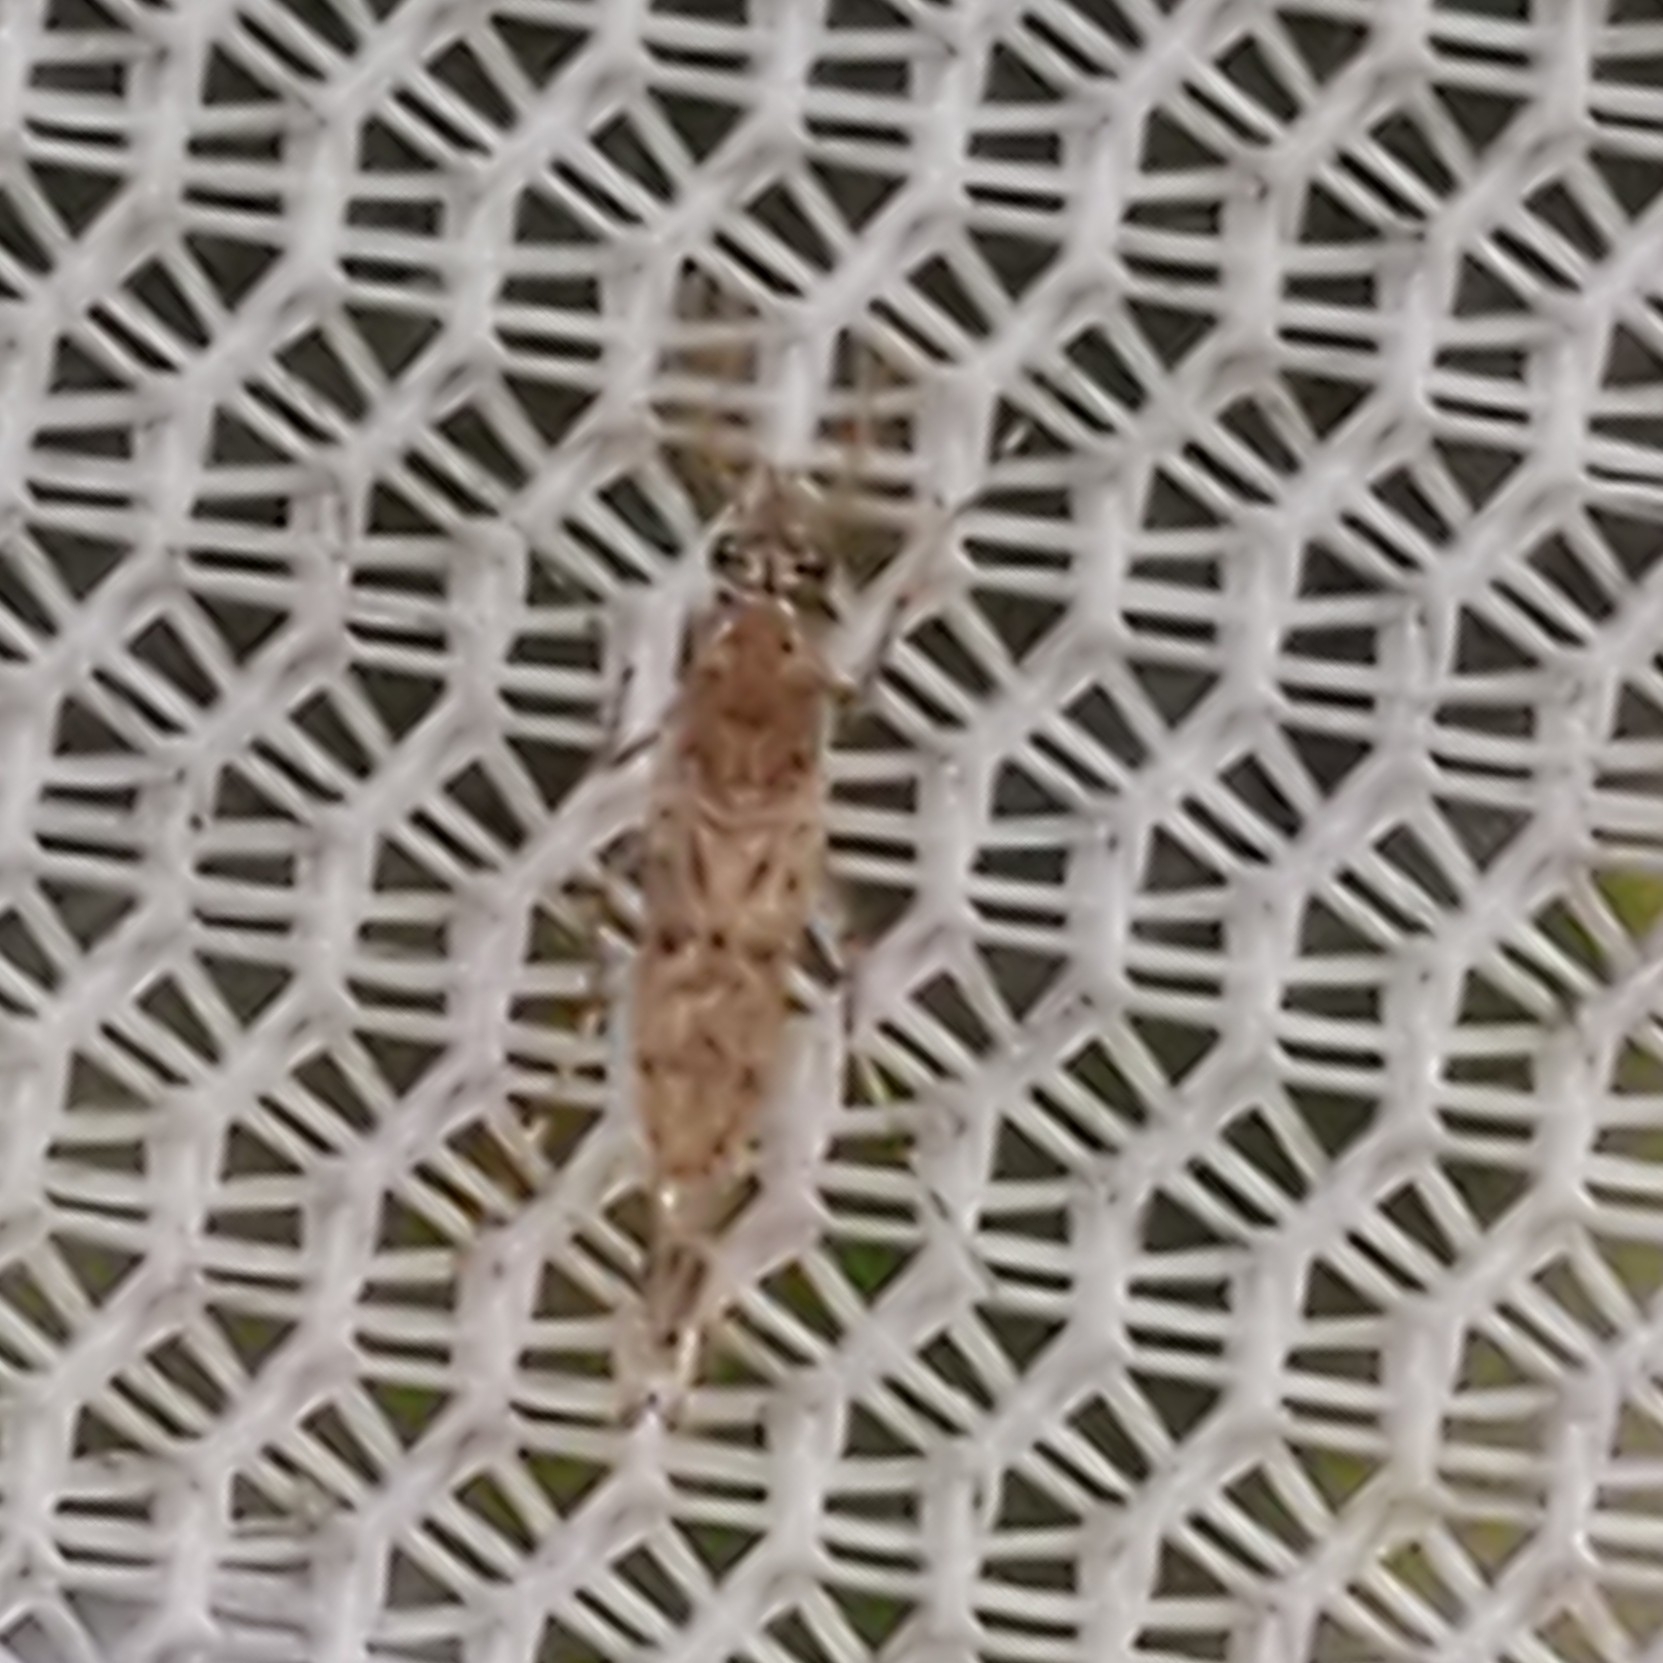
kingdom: Animalia
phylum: Arthropoda
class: Insecta
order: Diptera
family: Chaoboridae
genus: Chaoborus
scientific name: Chaoborus punctipennis
